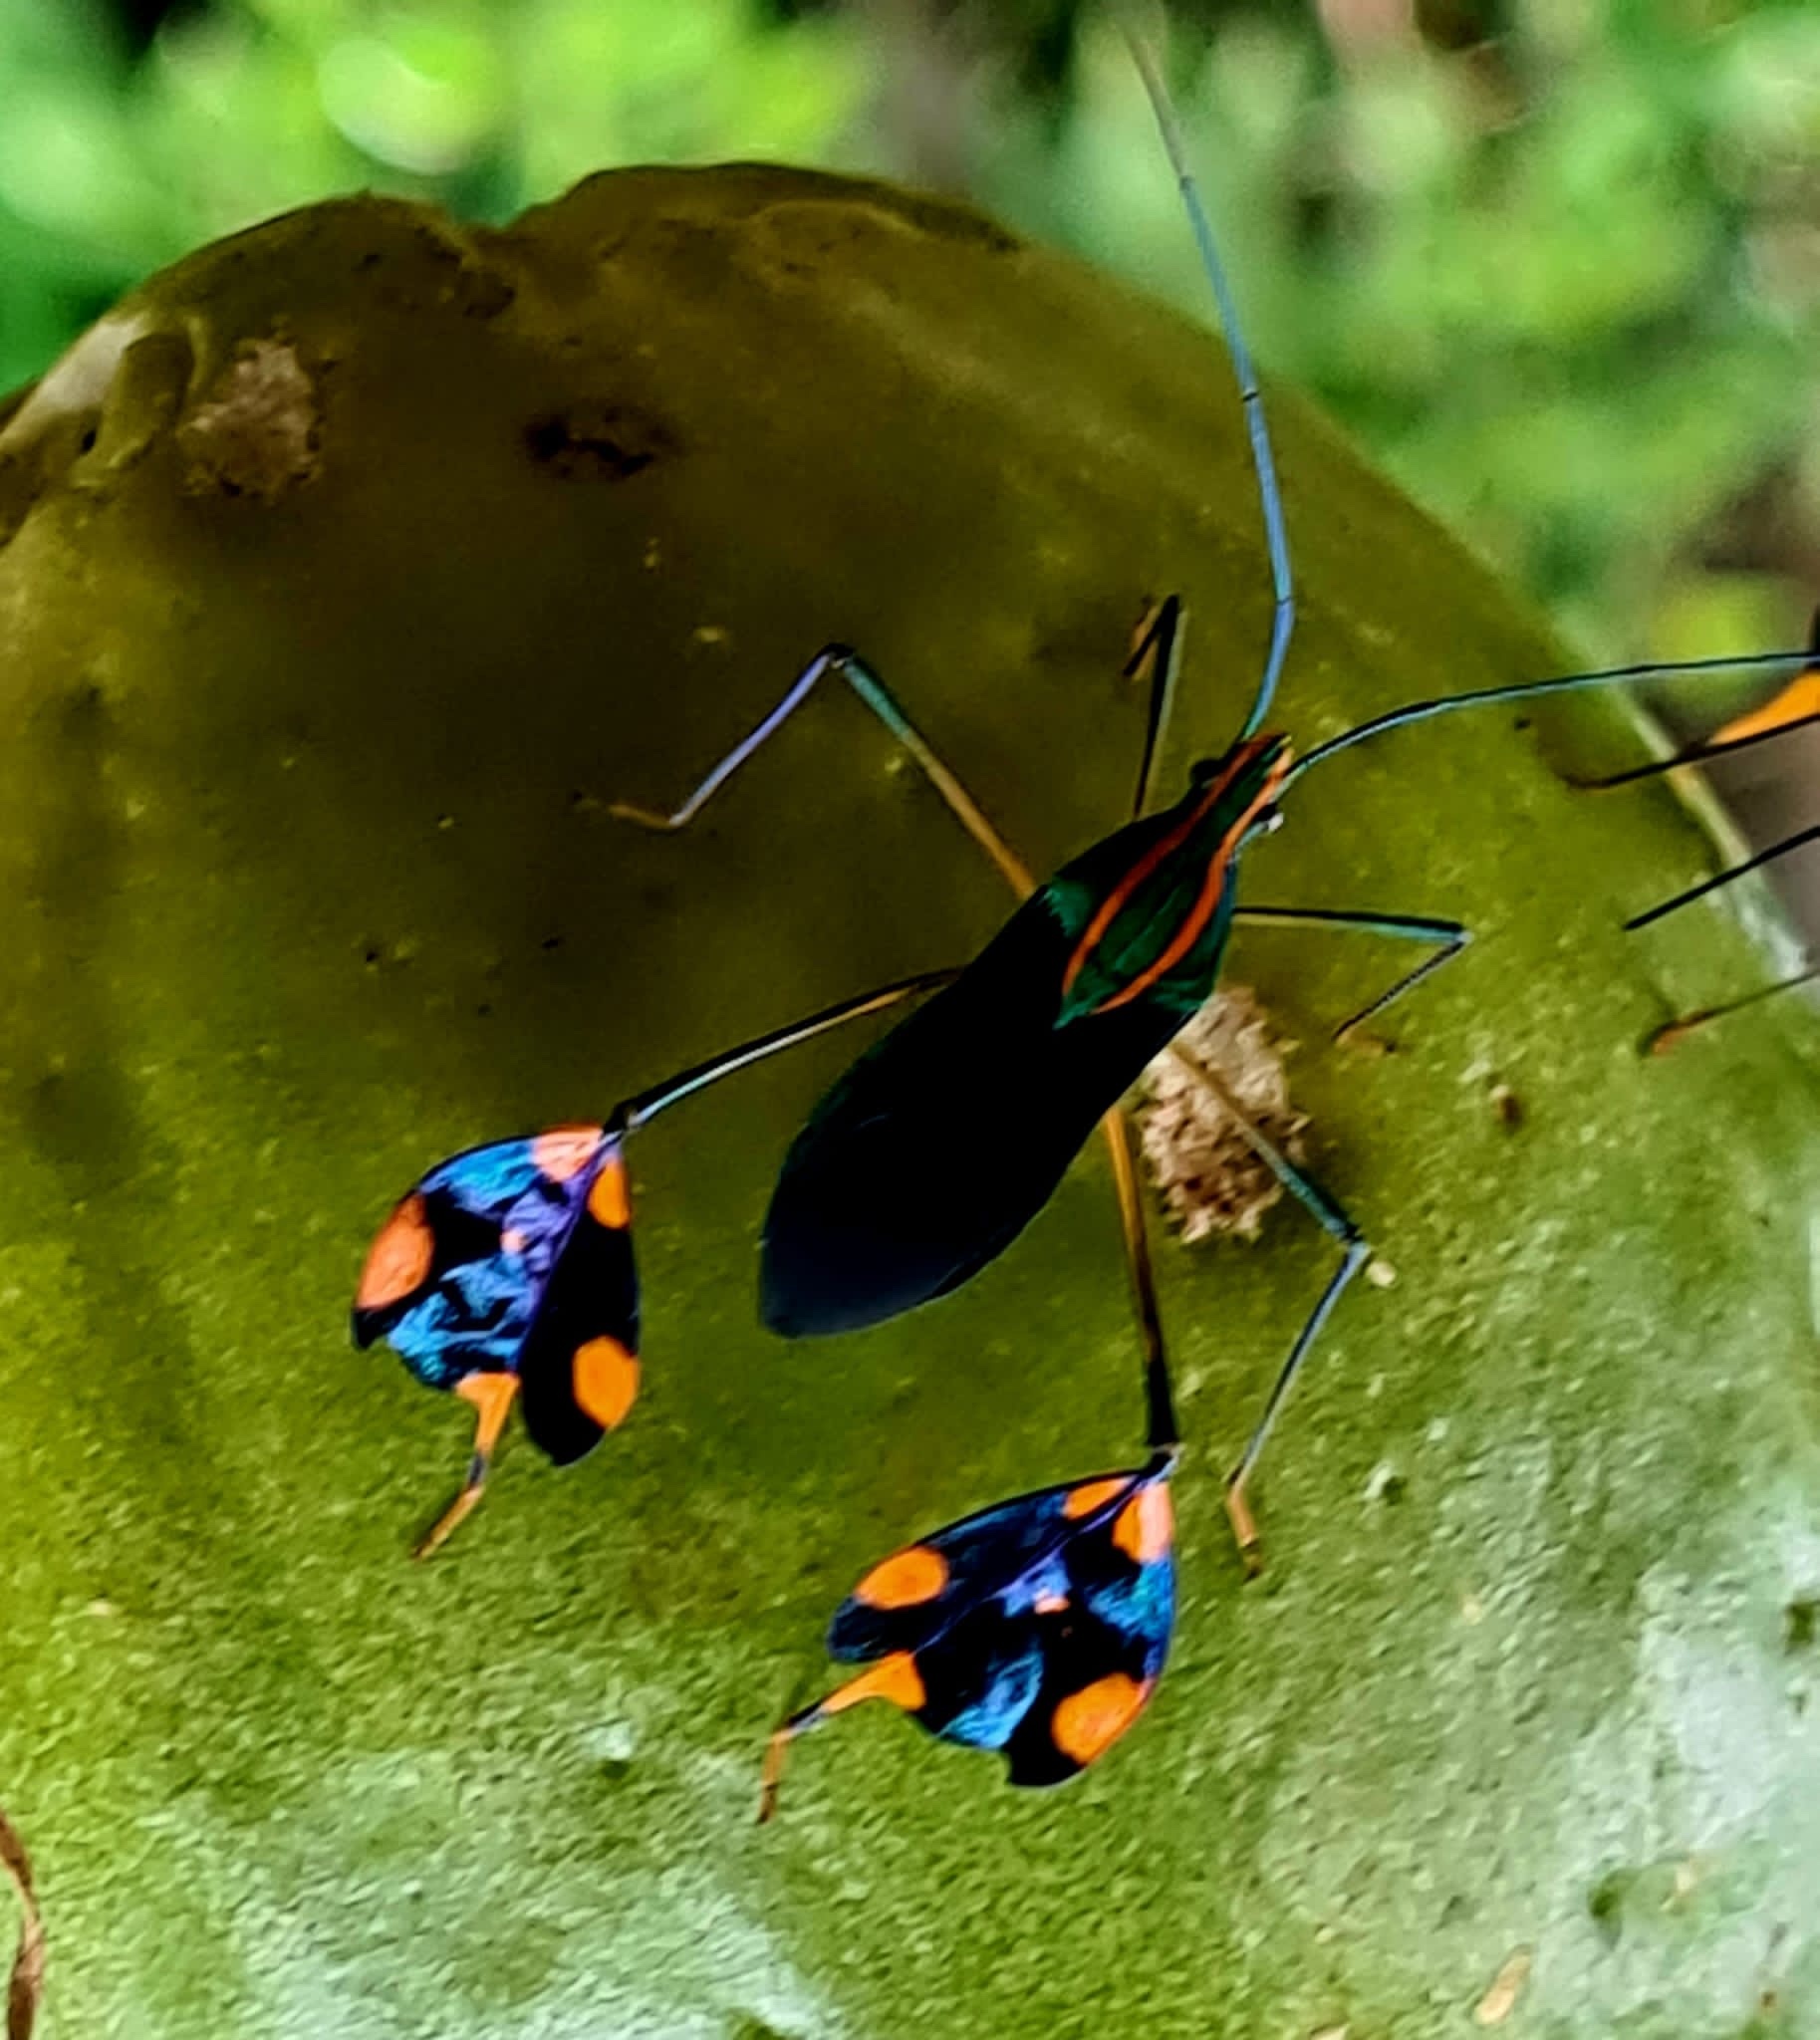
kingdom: Animalia
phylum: Arthropoda
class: Insecta
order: Hemiptera
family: Coreidae
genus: Diactor
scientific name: Diactor bilineatus
